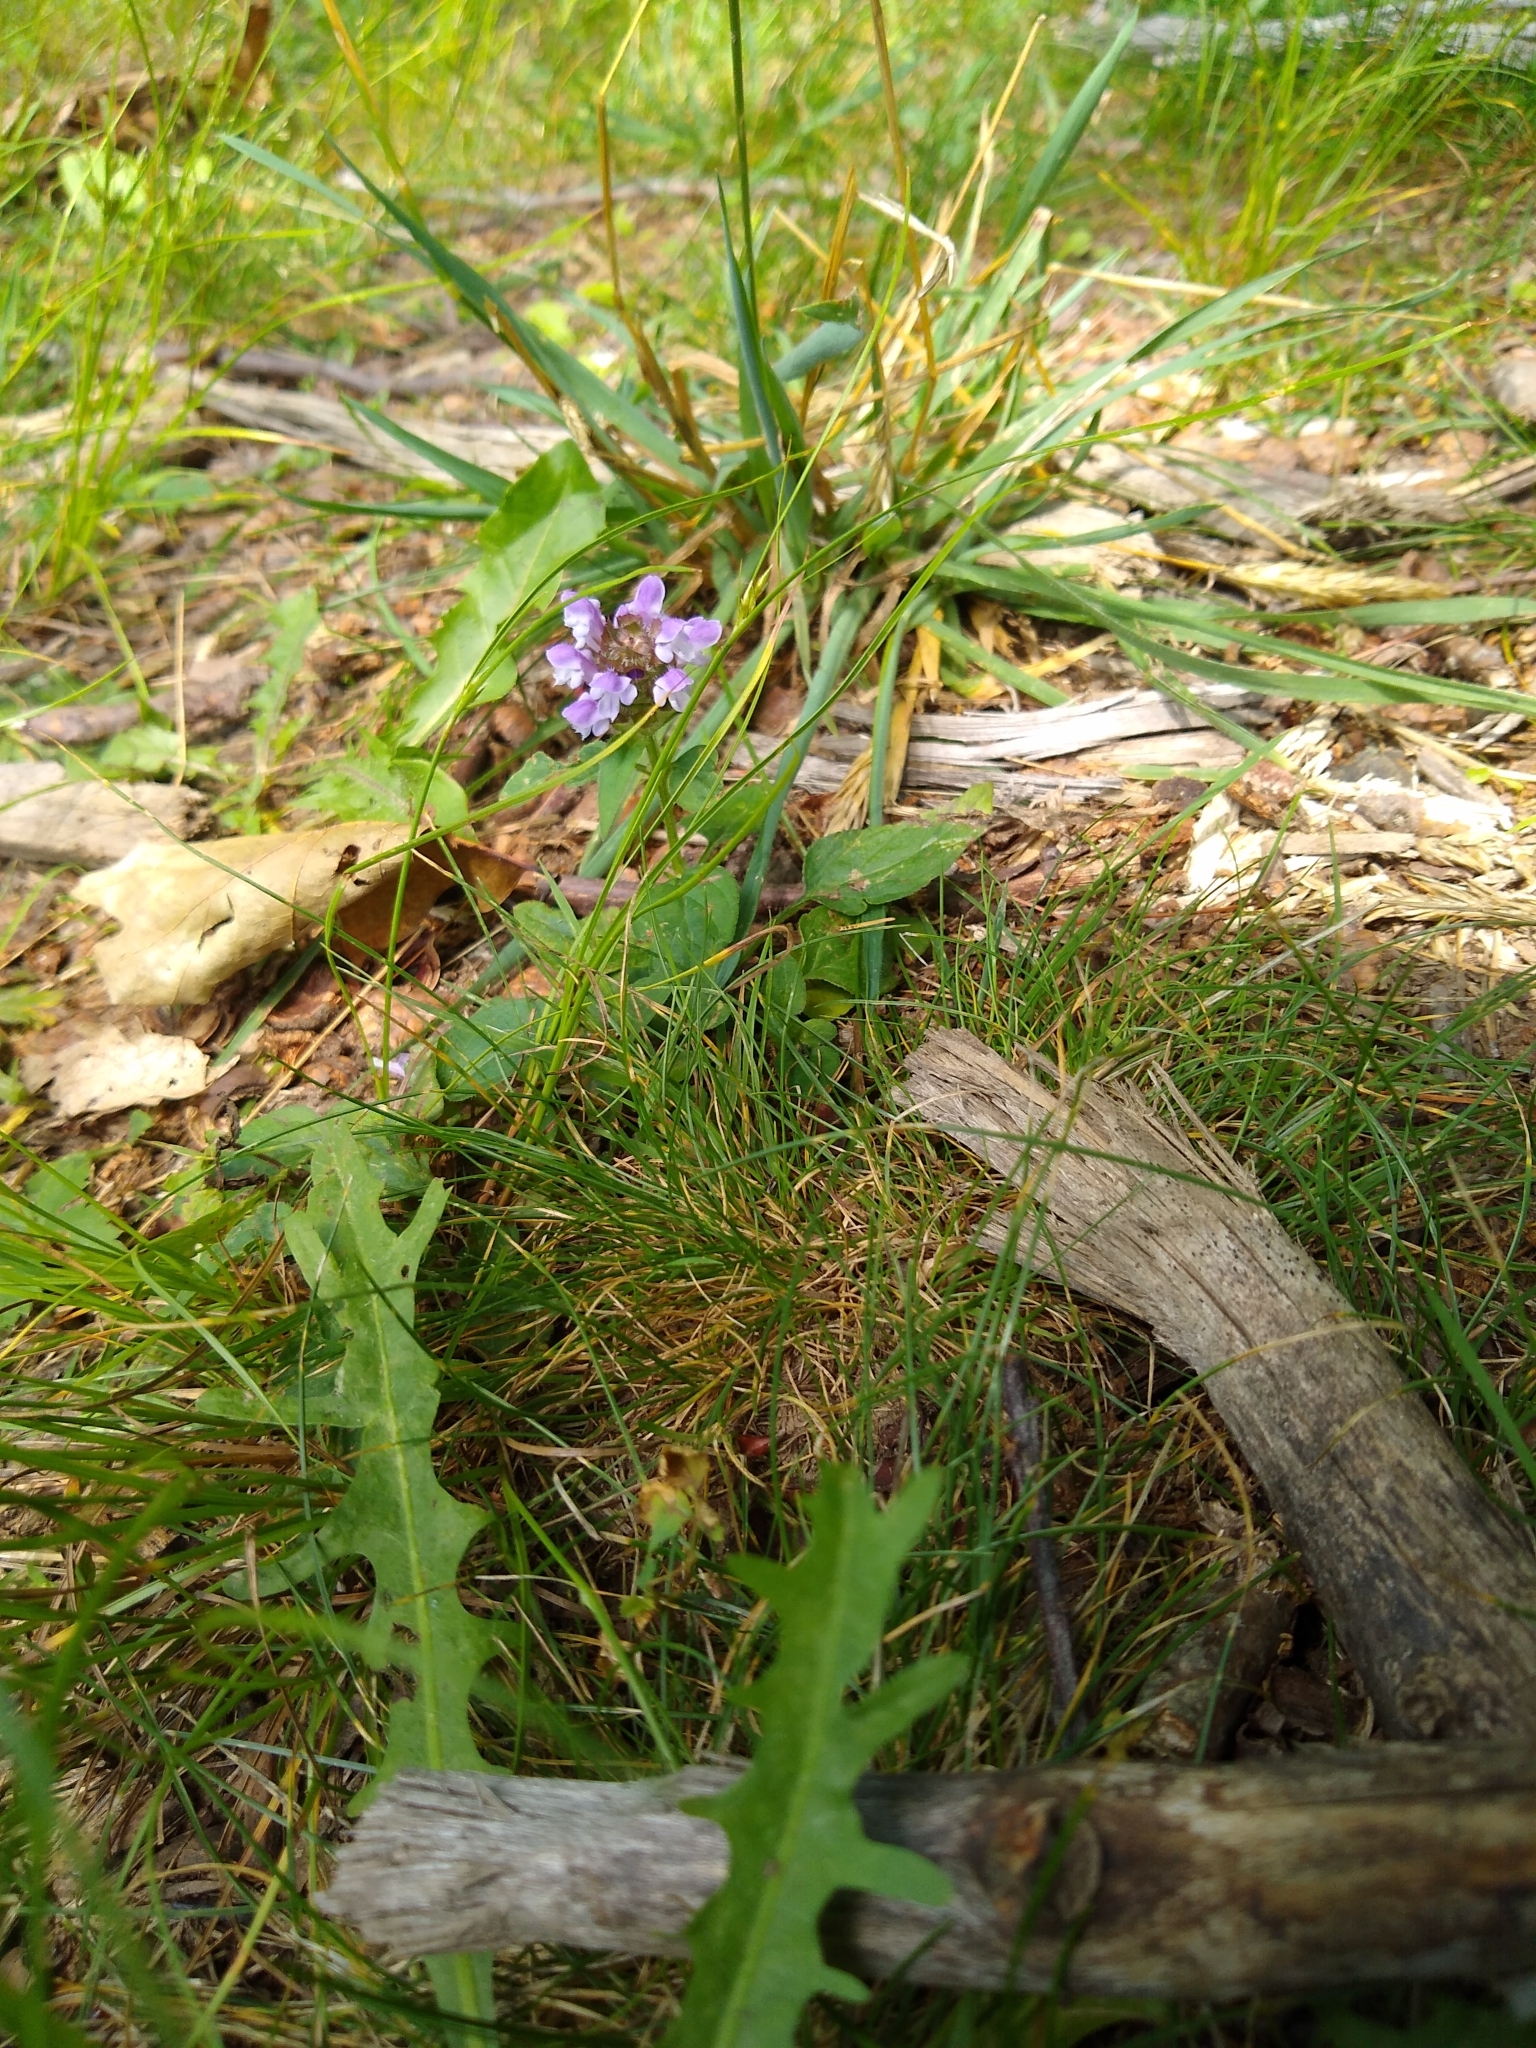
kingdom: Plantae
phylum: Tracheophyta
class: Magnoliopsida
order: Lamiales
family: Lamiaceae
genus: Prunella
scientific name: Prunella vulgaris
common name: Heal-all
